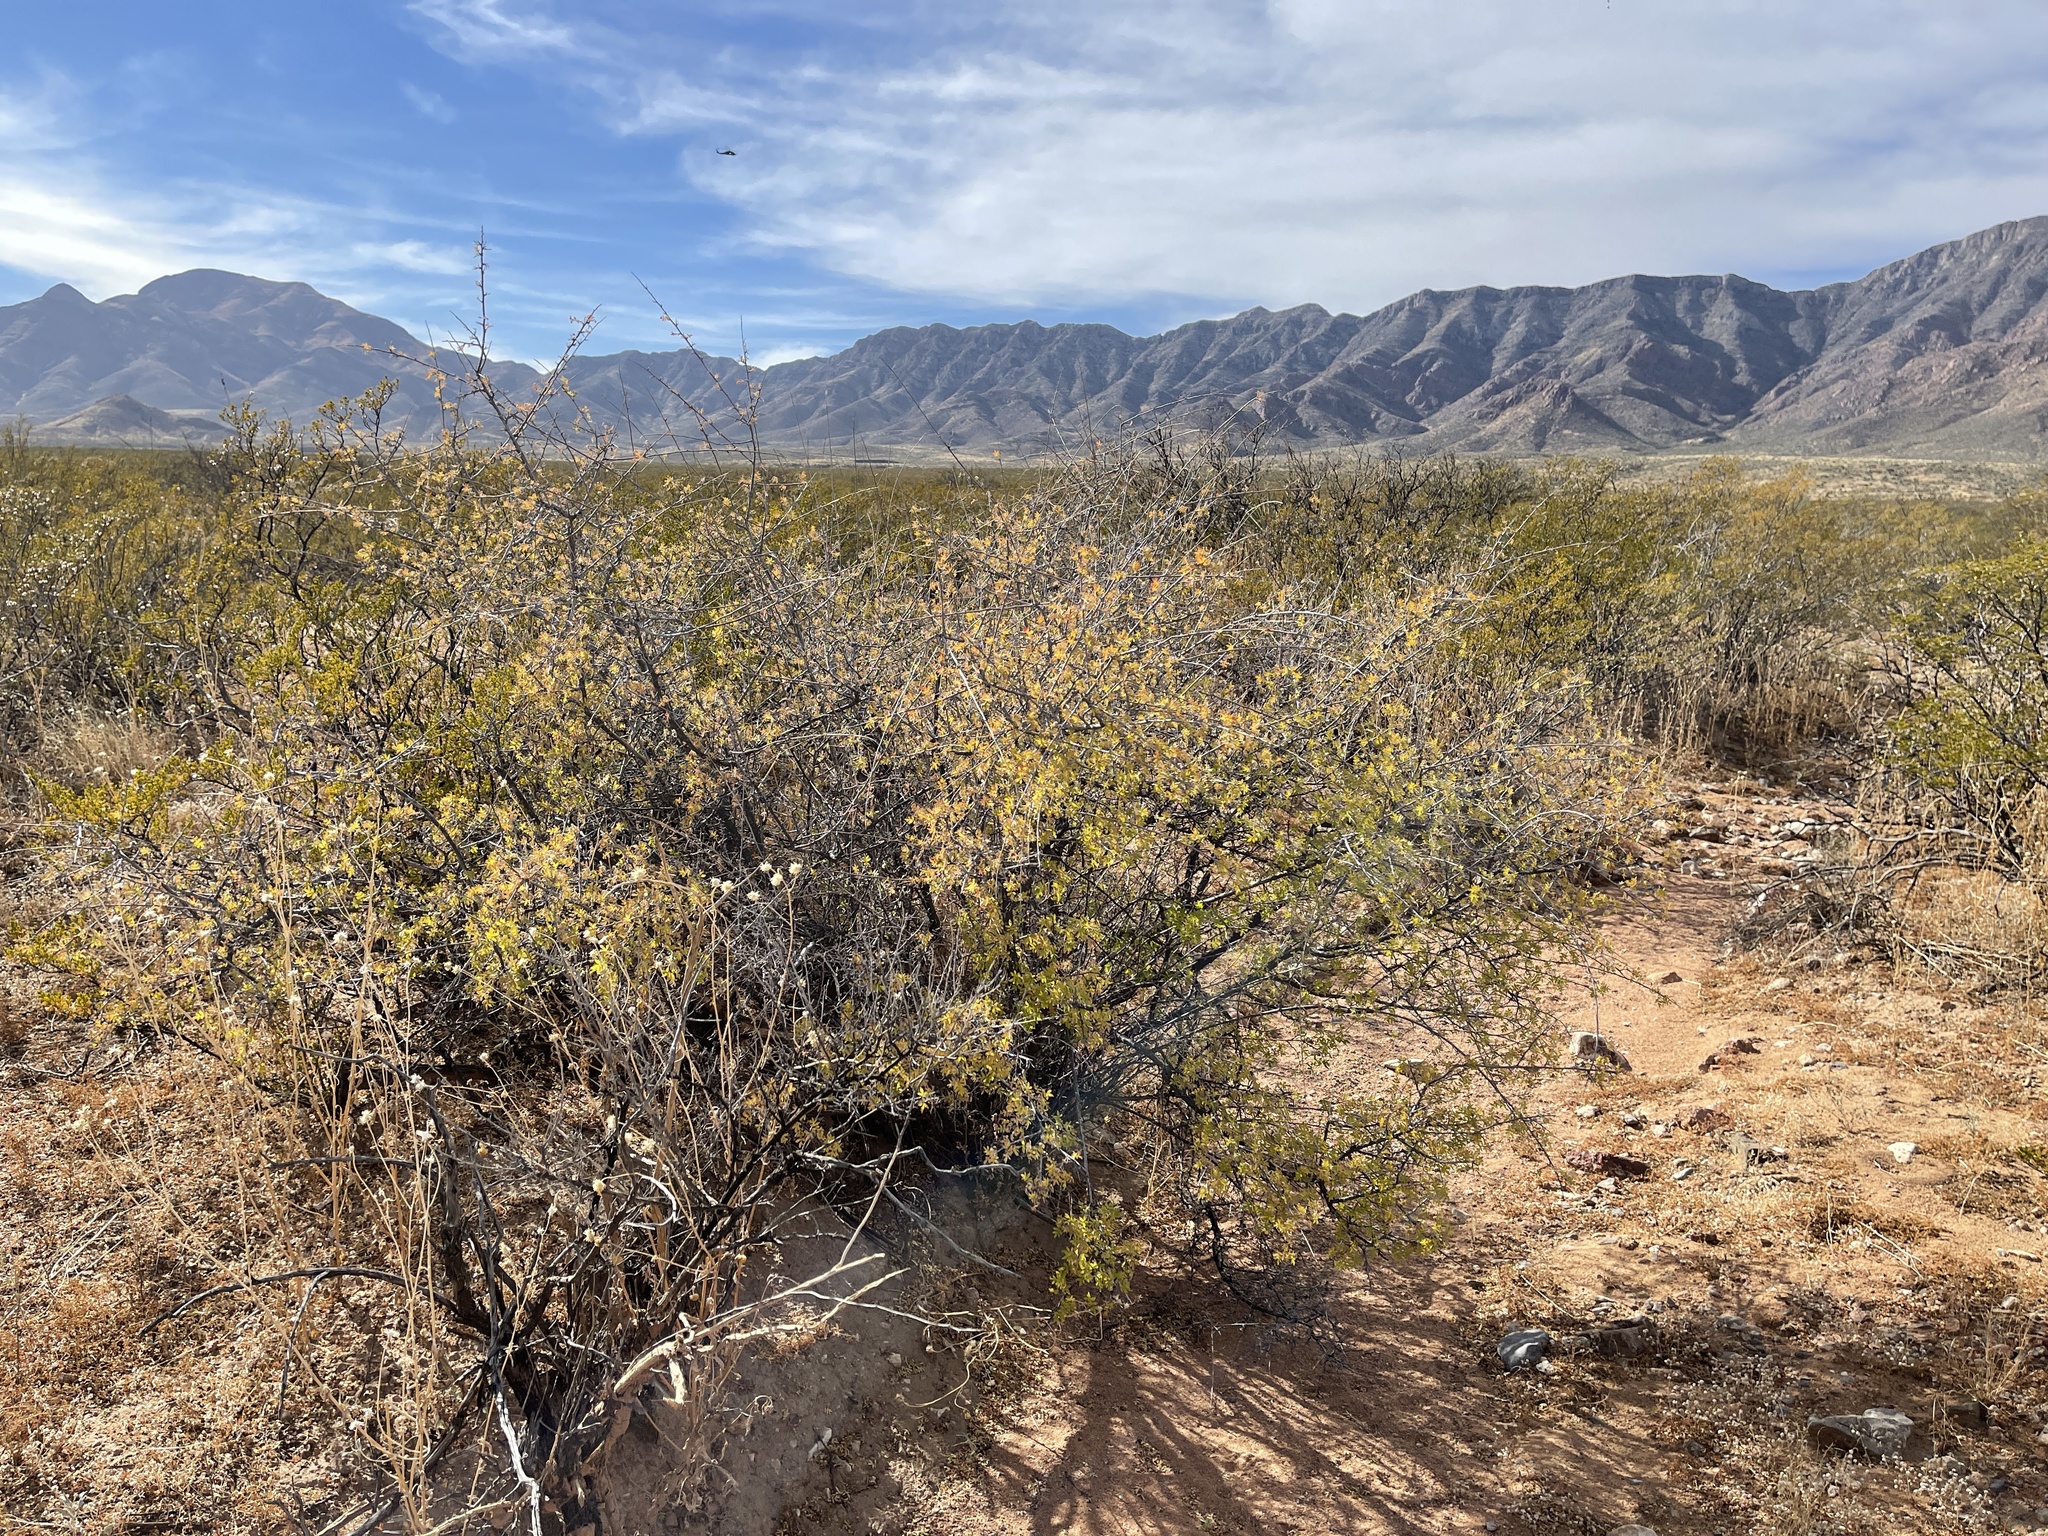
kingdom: Plantae
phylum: Tracheophyta
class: Magnoliopsida
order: Sapindales
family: Anacardiaceae
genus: Rhus
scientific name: Rhus microphylla
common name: Desert sumac
